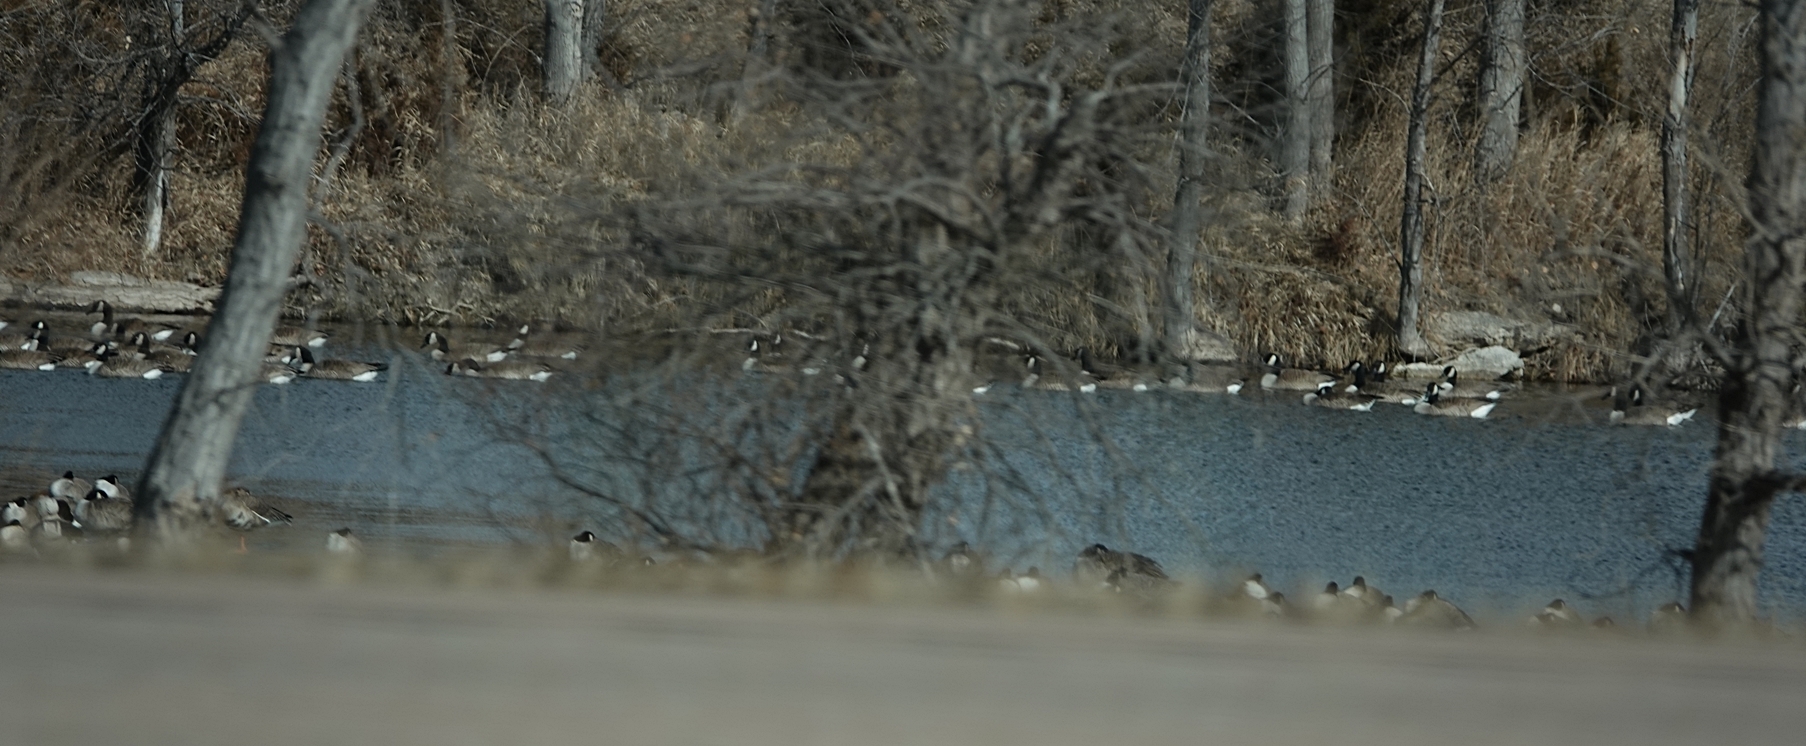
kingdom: Animalia
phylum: Chordata
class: Aves
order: Anseriformes
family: Anatidae
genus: Branta
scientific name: Branta canadensis
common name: Canada goose
